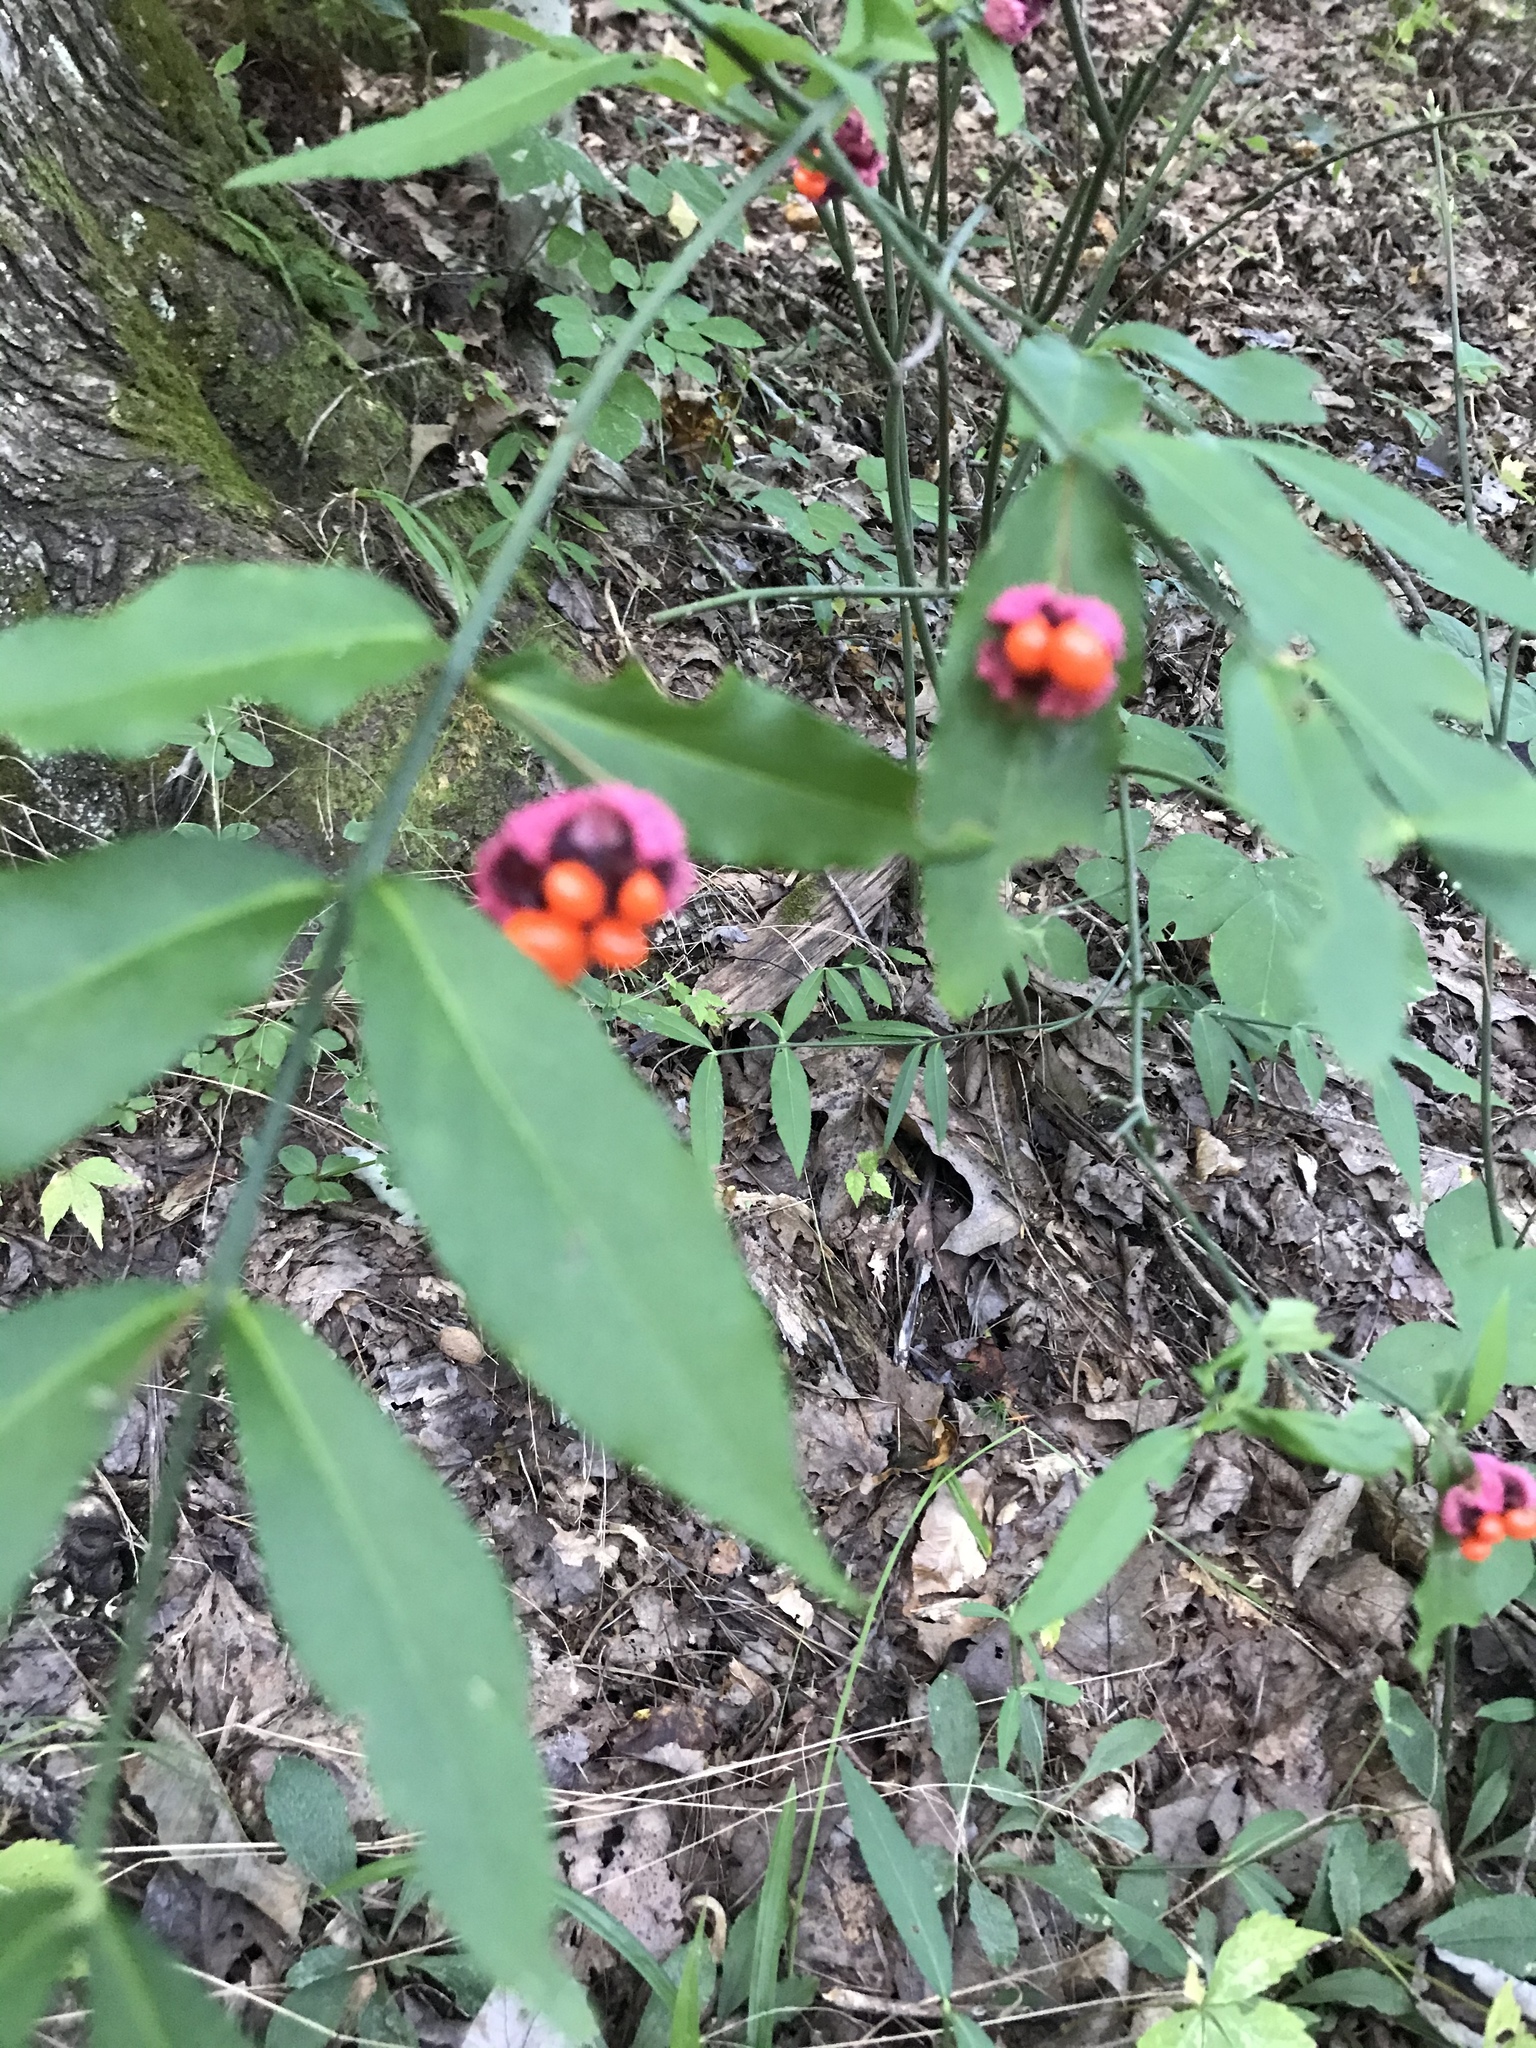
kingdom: Plantae
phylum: Tracheophyta
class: Magnoliopsida
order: Celastrales
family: Celastraceae
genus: Euonymus
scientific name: Euonymus americanus
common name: Bursting-heart
